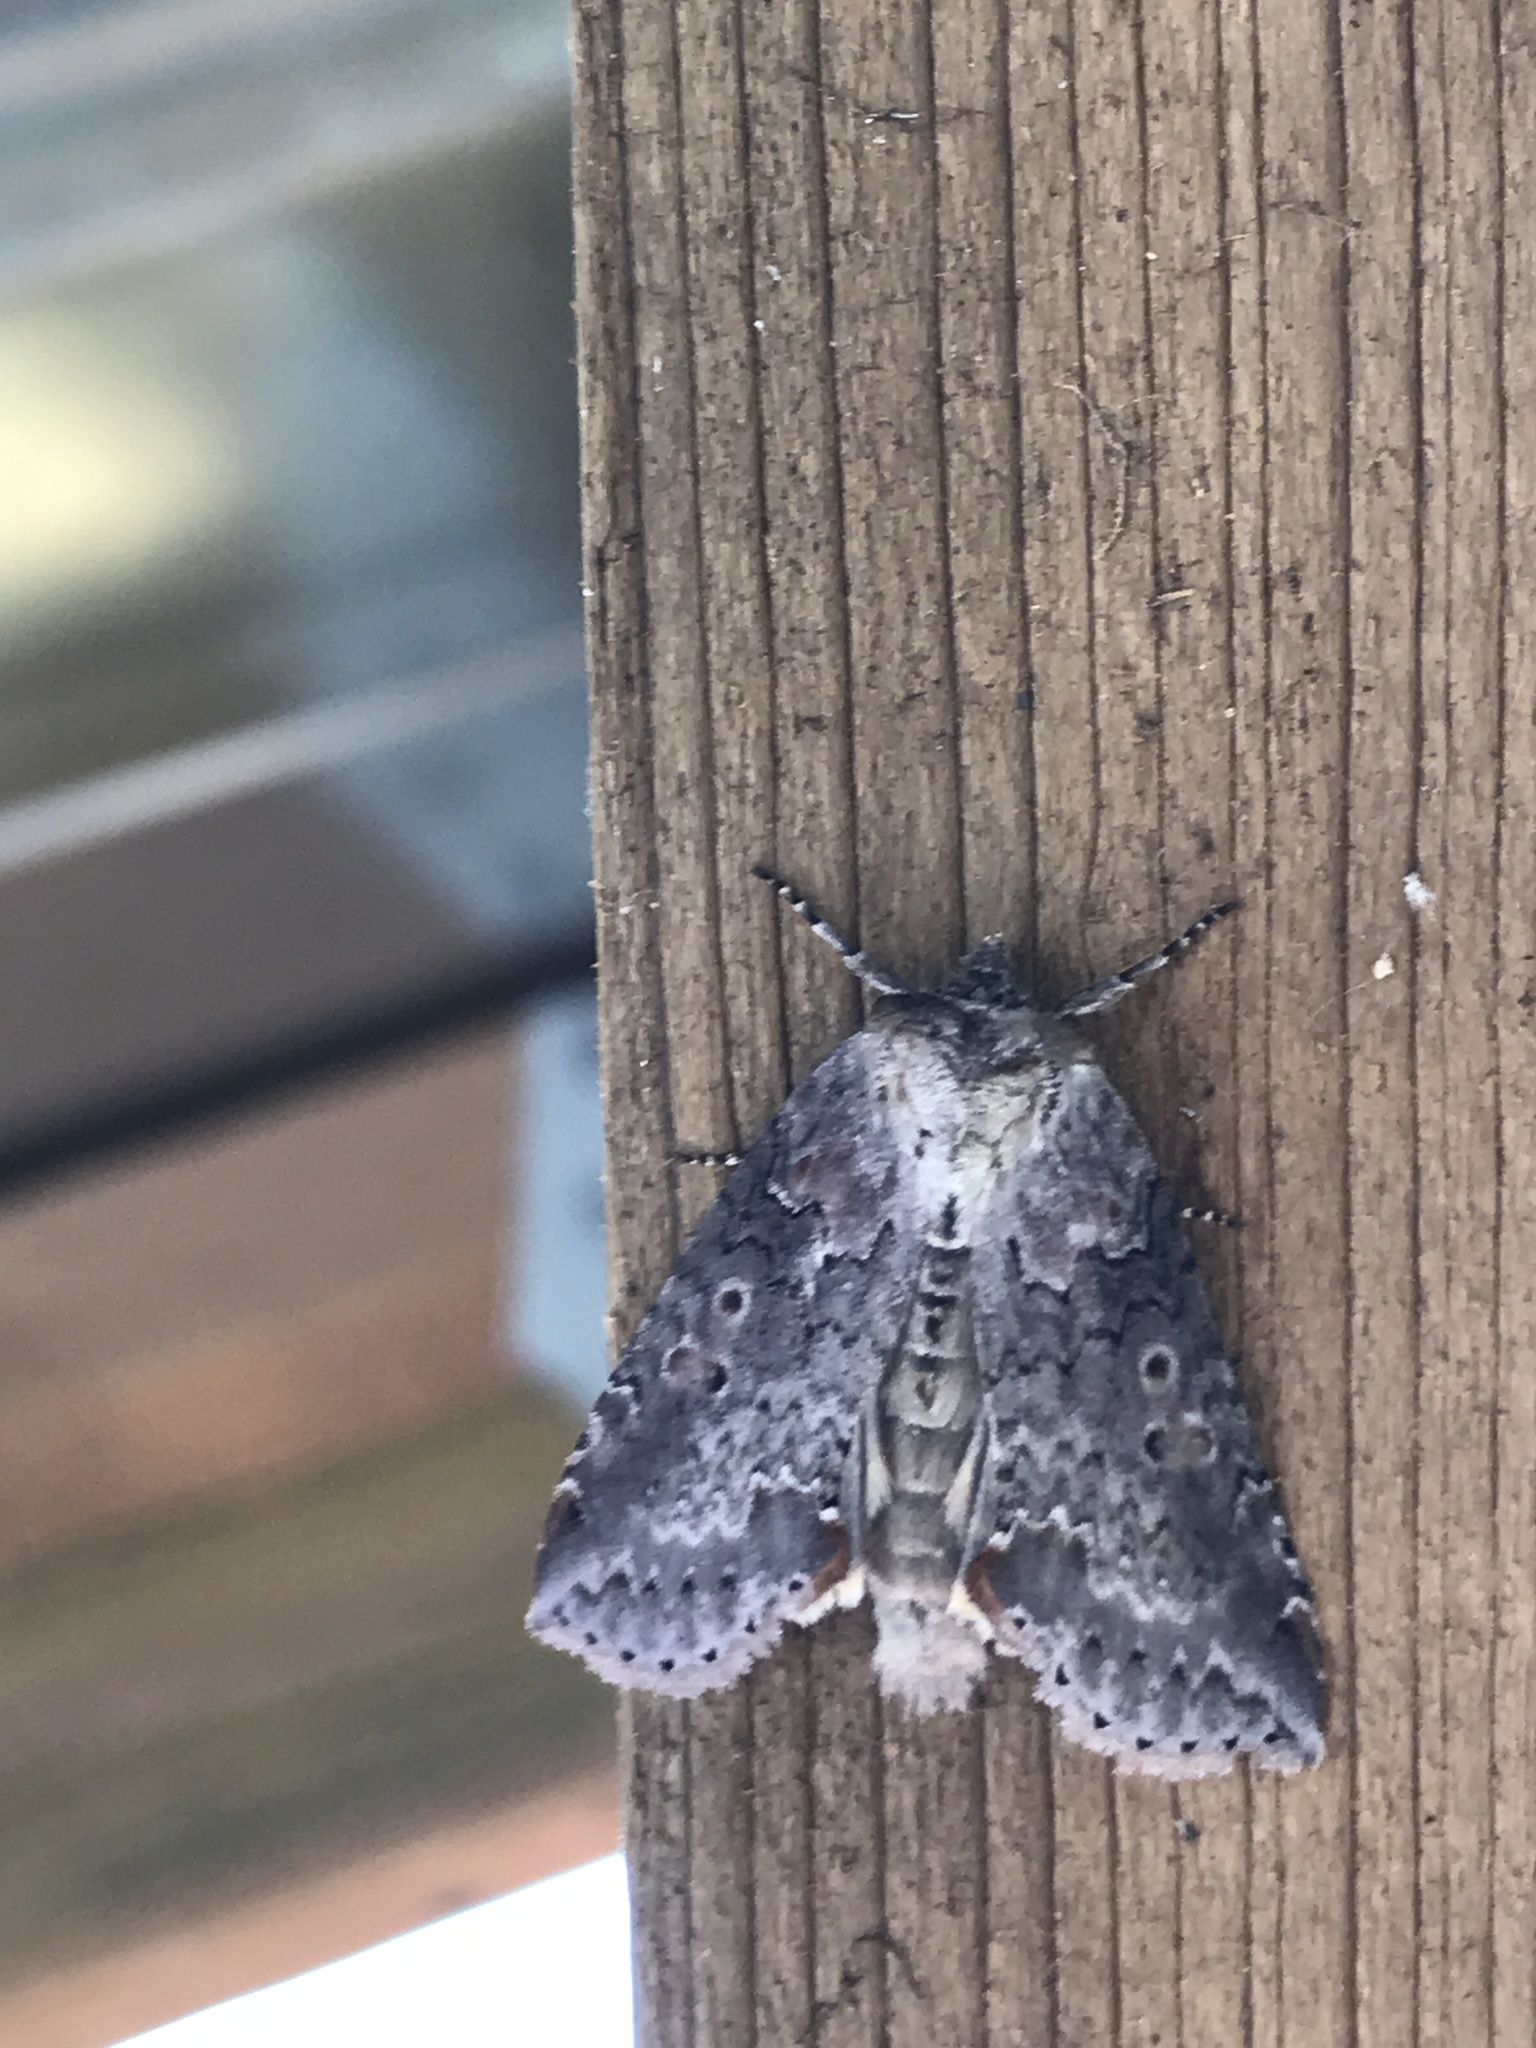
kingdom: Animalia
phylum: Arthropoda
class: Insecta
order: Lepidoptera
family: Drepanidae
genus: Pseudothyatira
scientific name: Pseudothyatira cymatophoroides
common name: Tufted thyatirid moth
